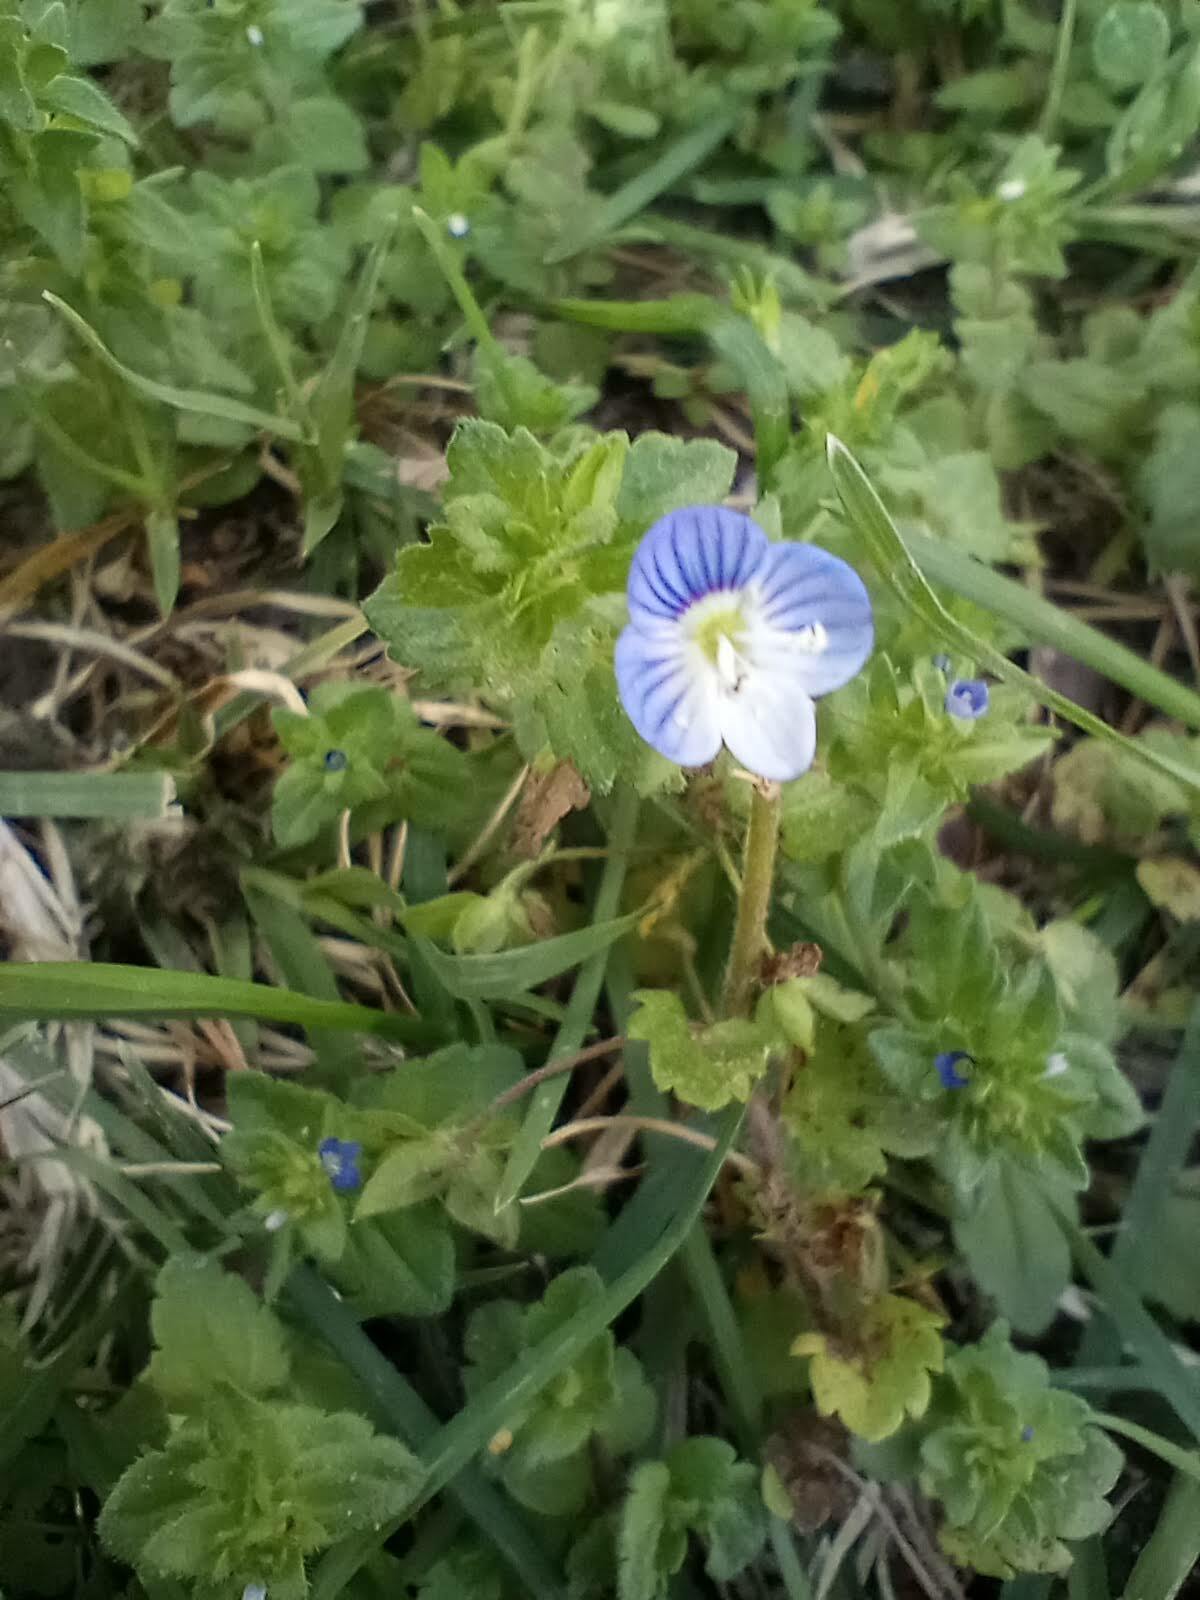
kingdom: Plantae
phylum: Tracheophyta
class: Magnoliopsida
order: Lamiales
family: Plantaginaceae
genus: Veronica
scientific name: Veronica persica
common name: Common field-speedwell
